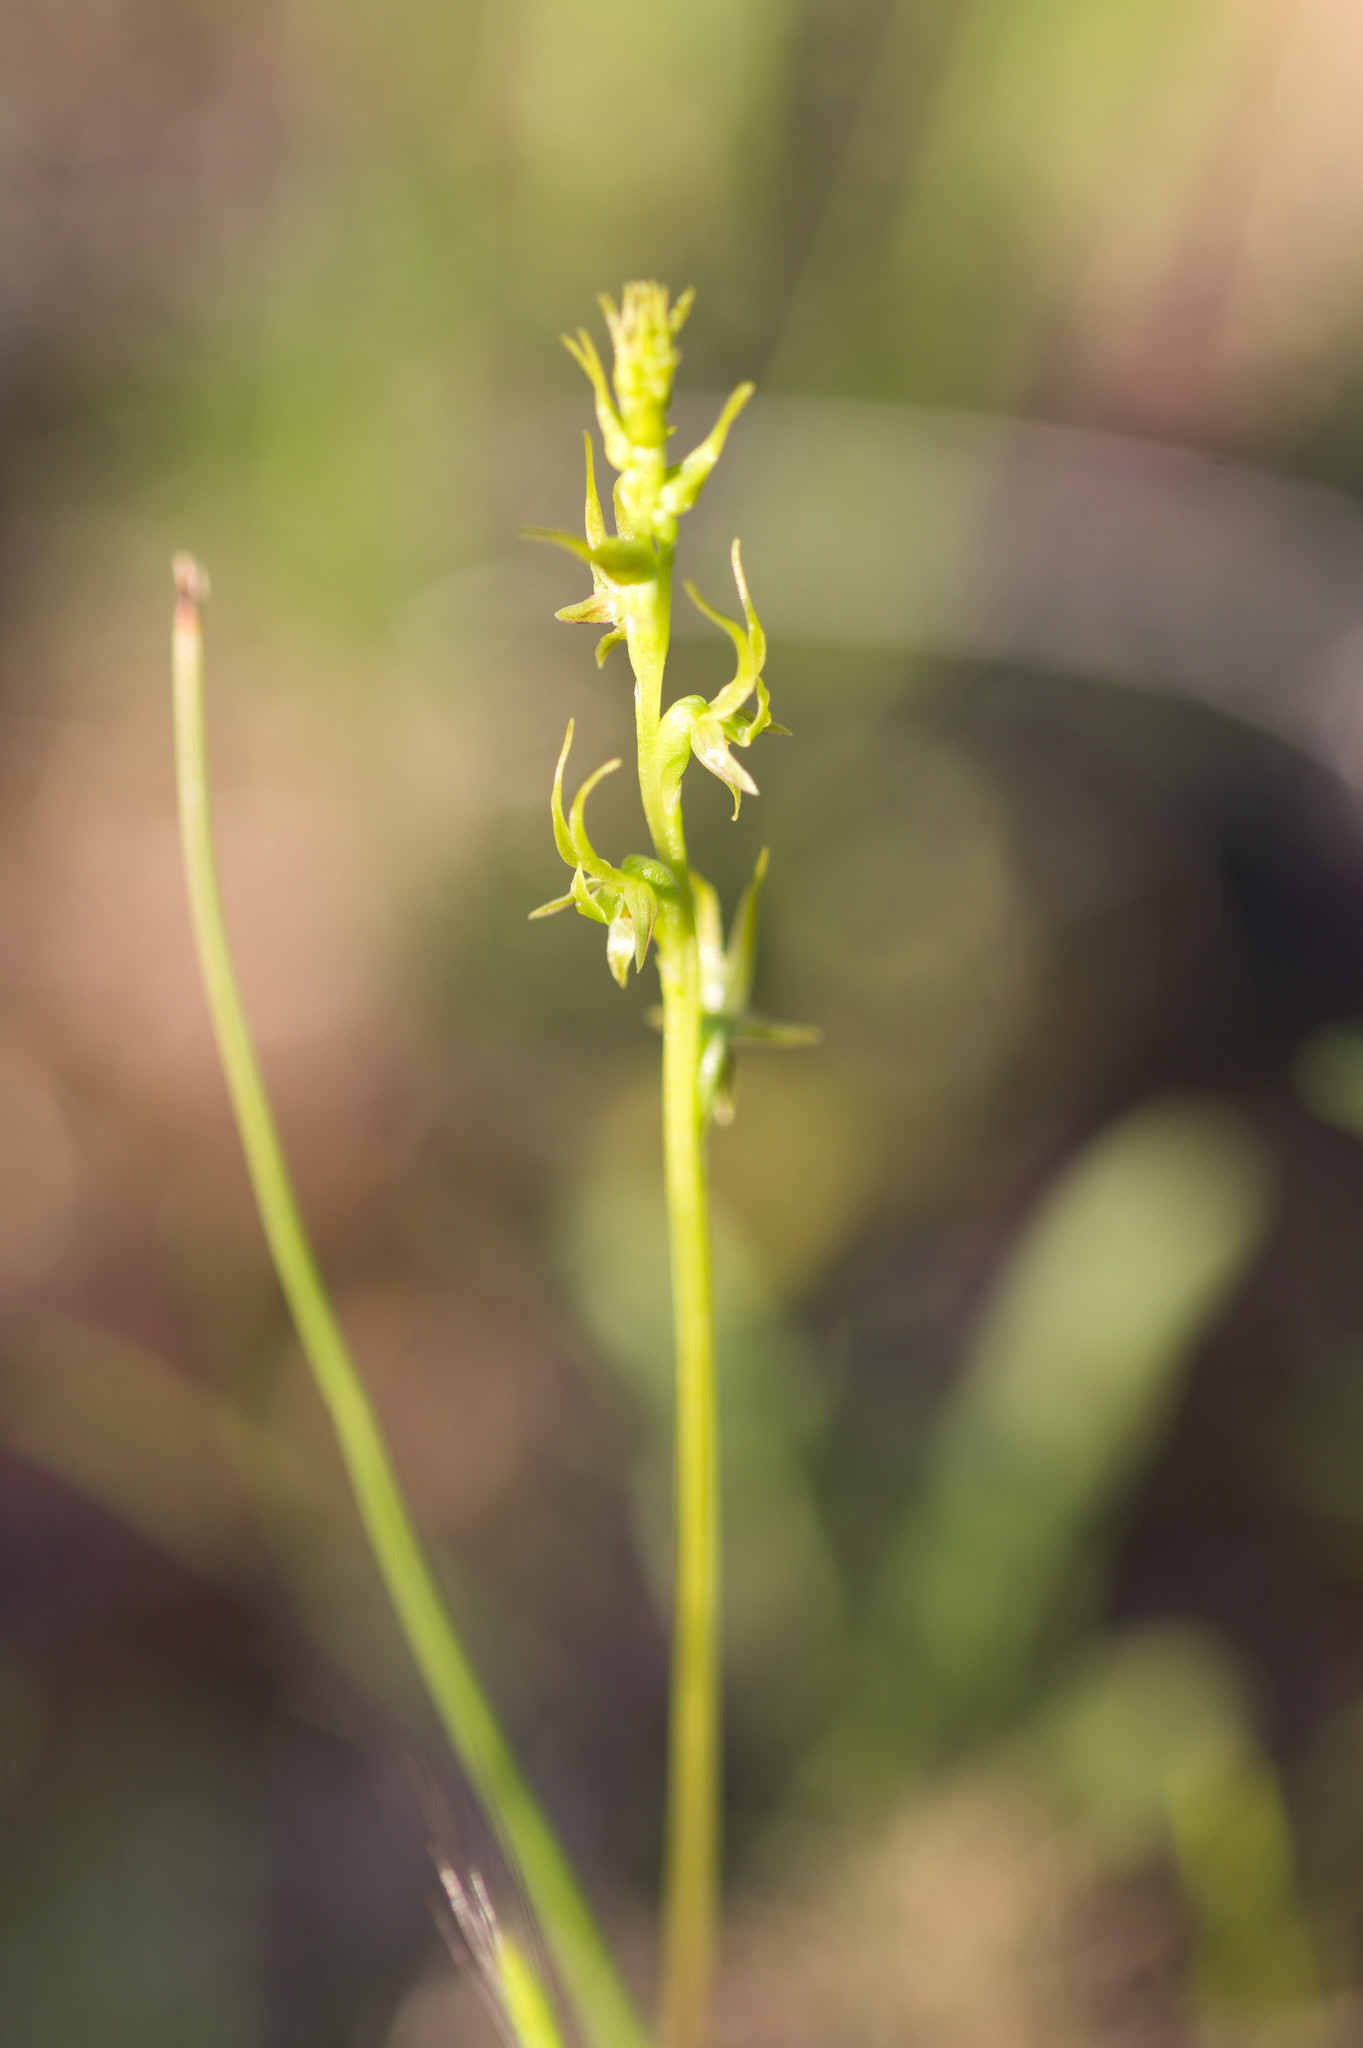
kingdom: Plantae
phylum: Tracheophyta
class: Liliopsida
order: Asparagales
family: Orchidaceae
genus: Prasophyllum
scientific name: Prasophyllum gracile
